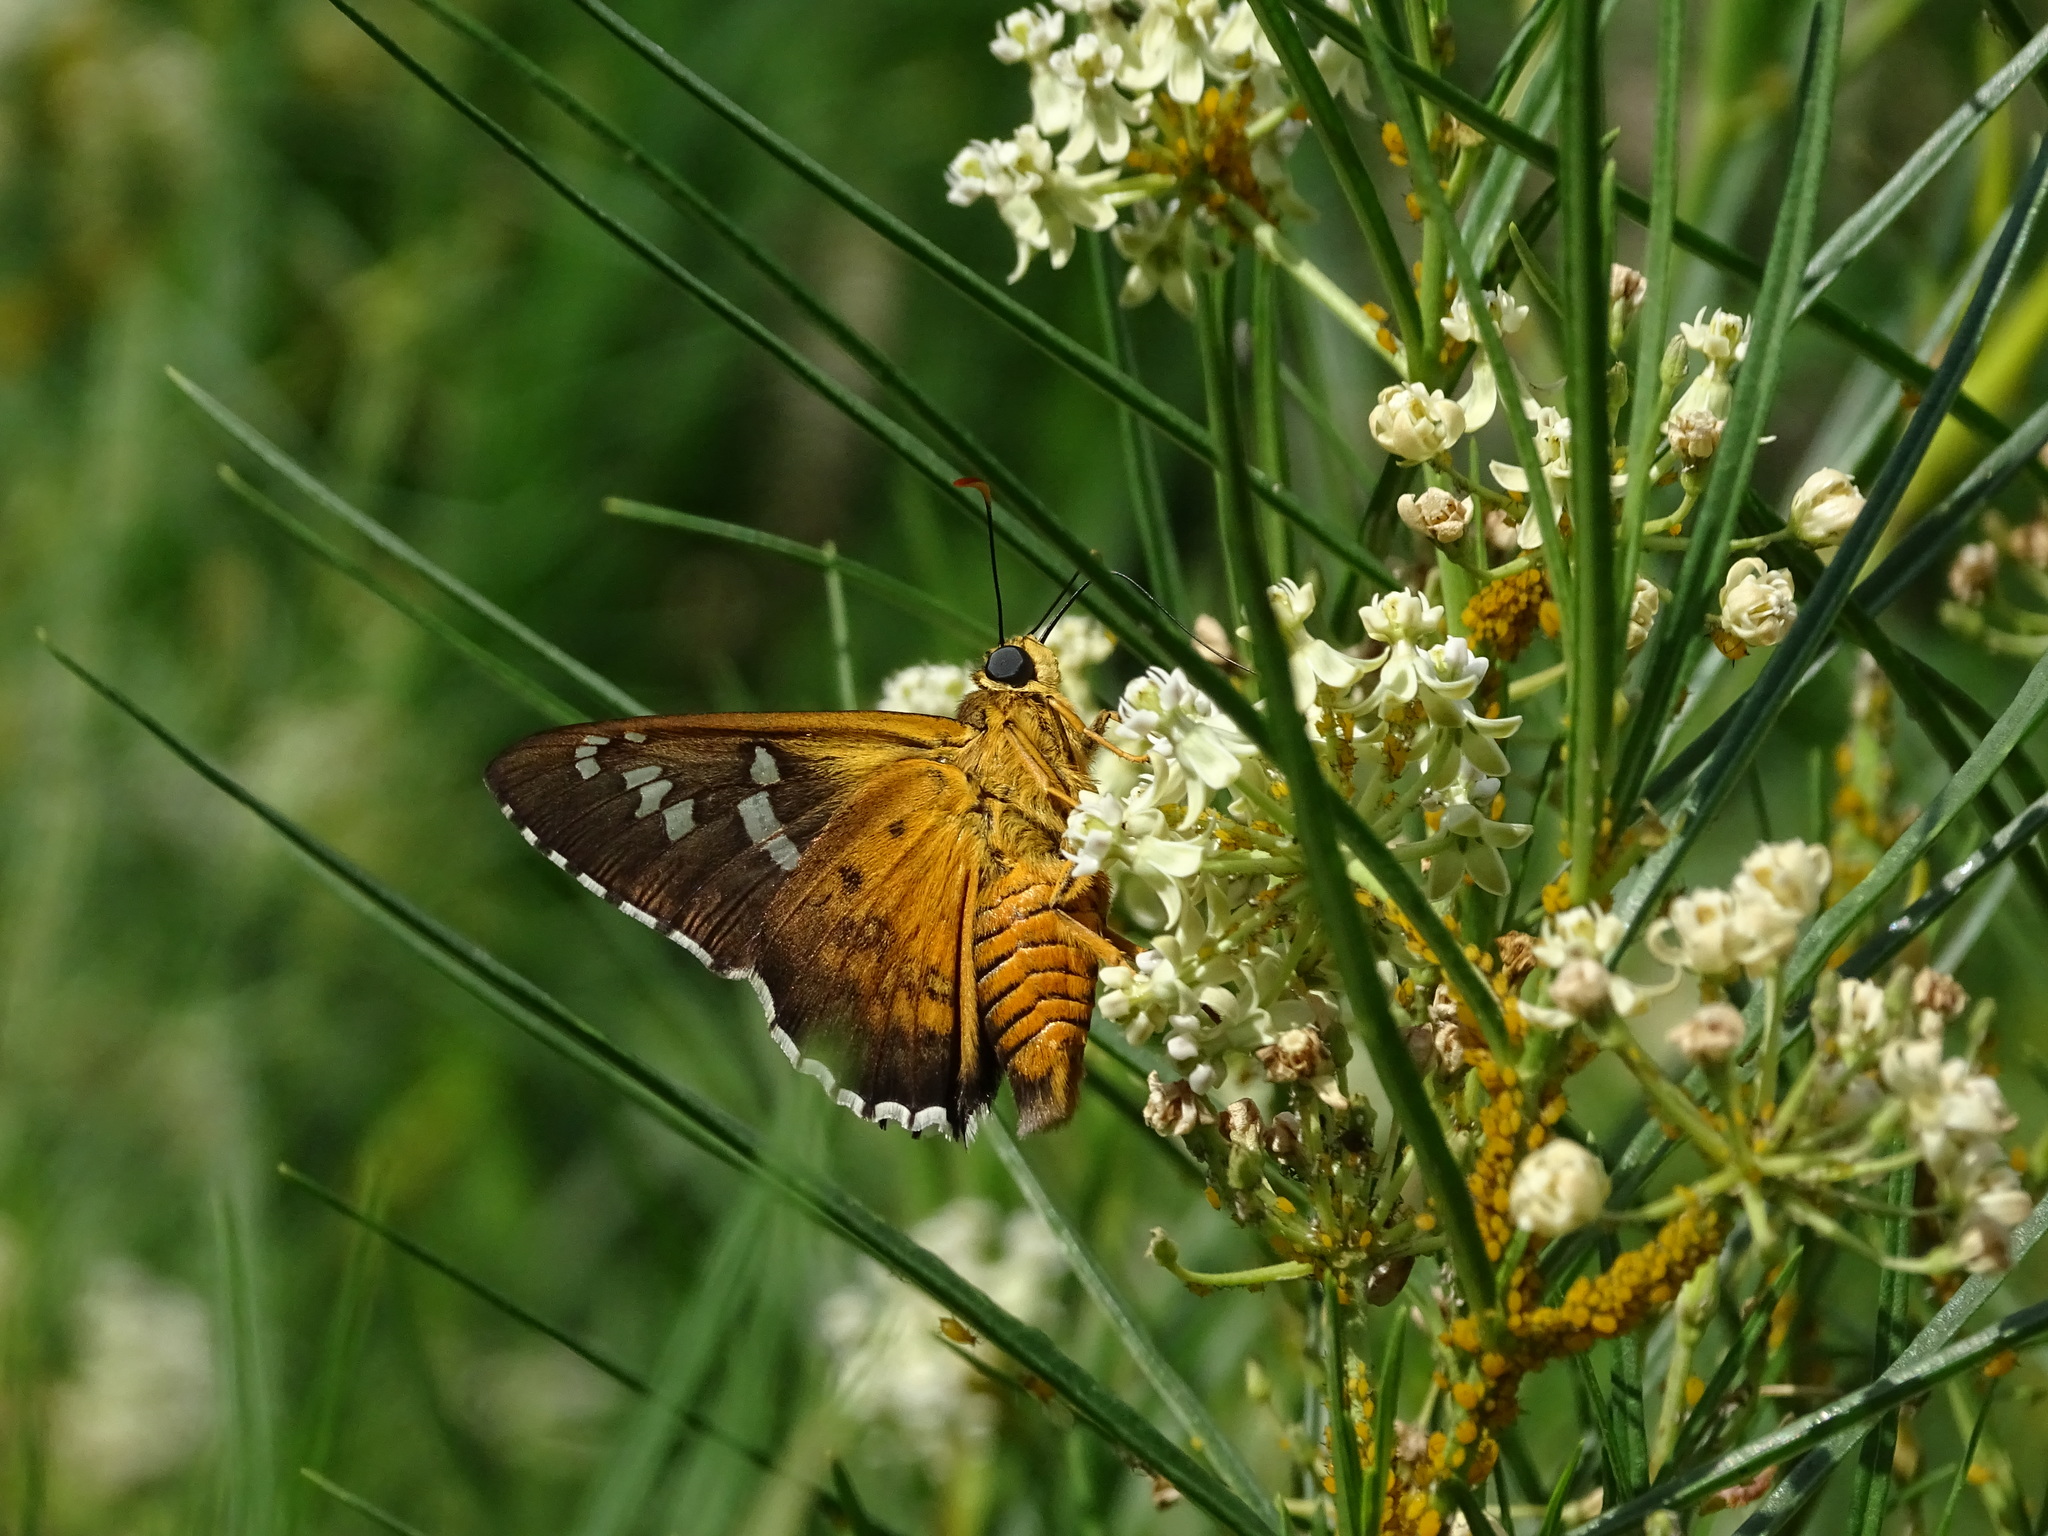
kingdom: Animalia
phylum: Arthropoda
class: Insecta
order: Lepidoptera
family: Hesperiidae
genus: Pyrrhopyge
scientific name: Pyrrhopyge araxes
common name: Dull firetip
